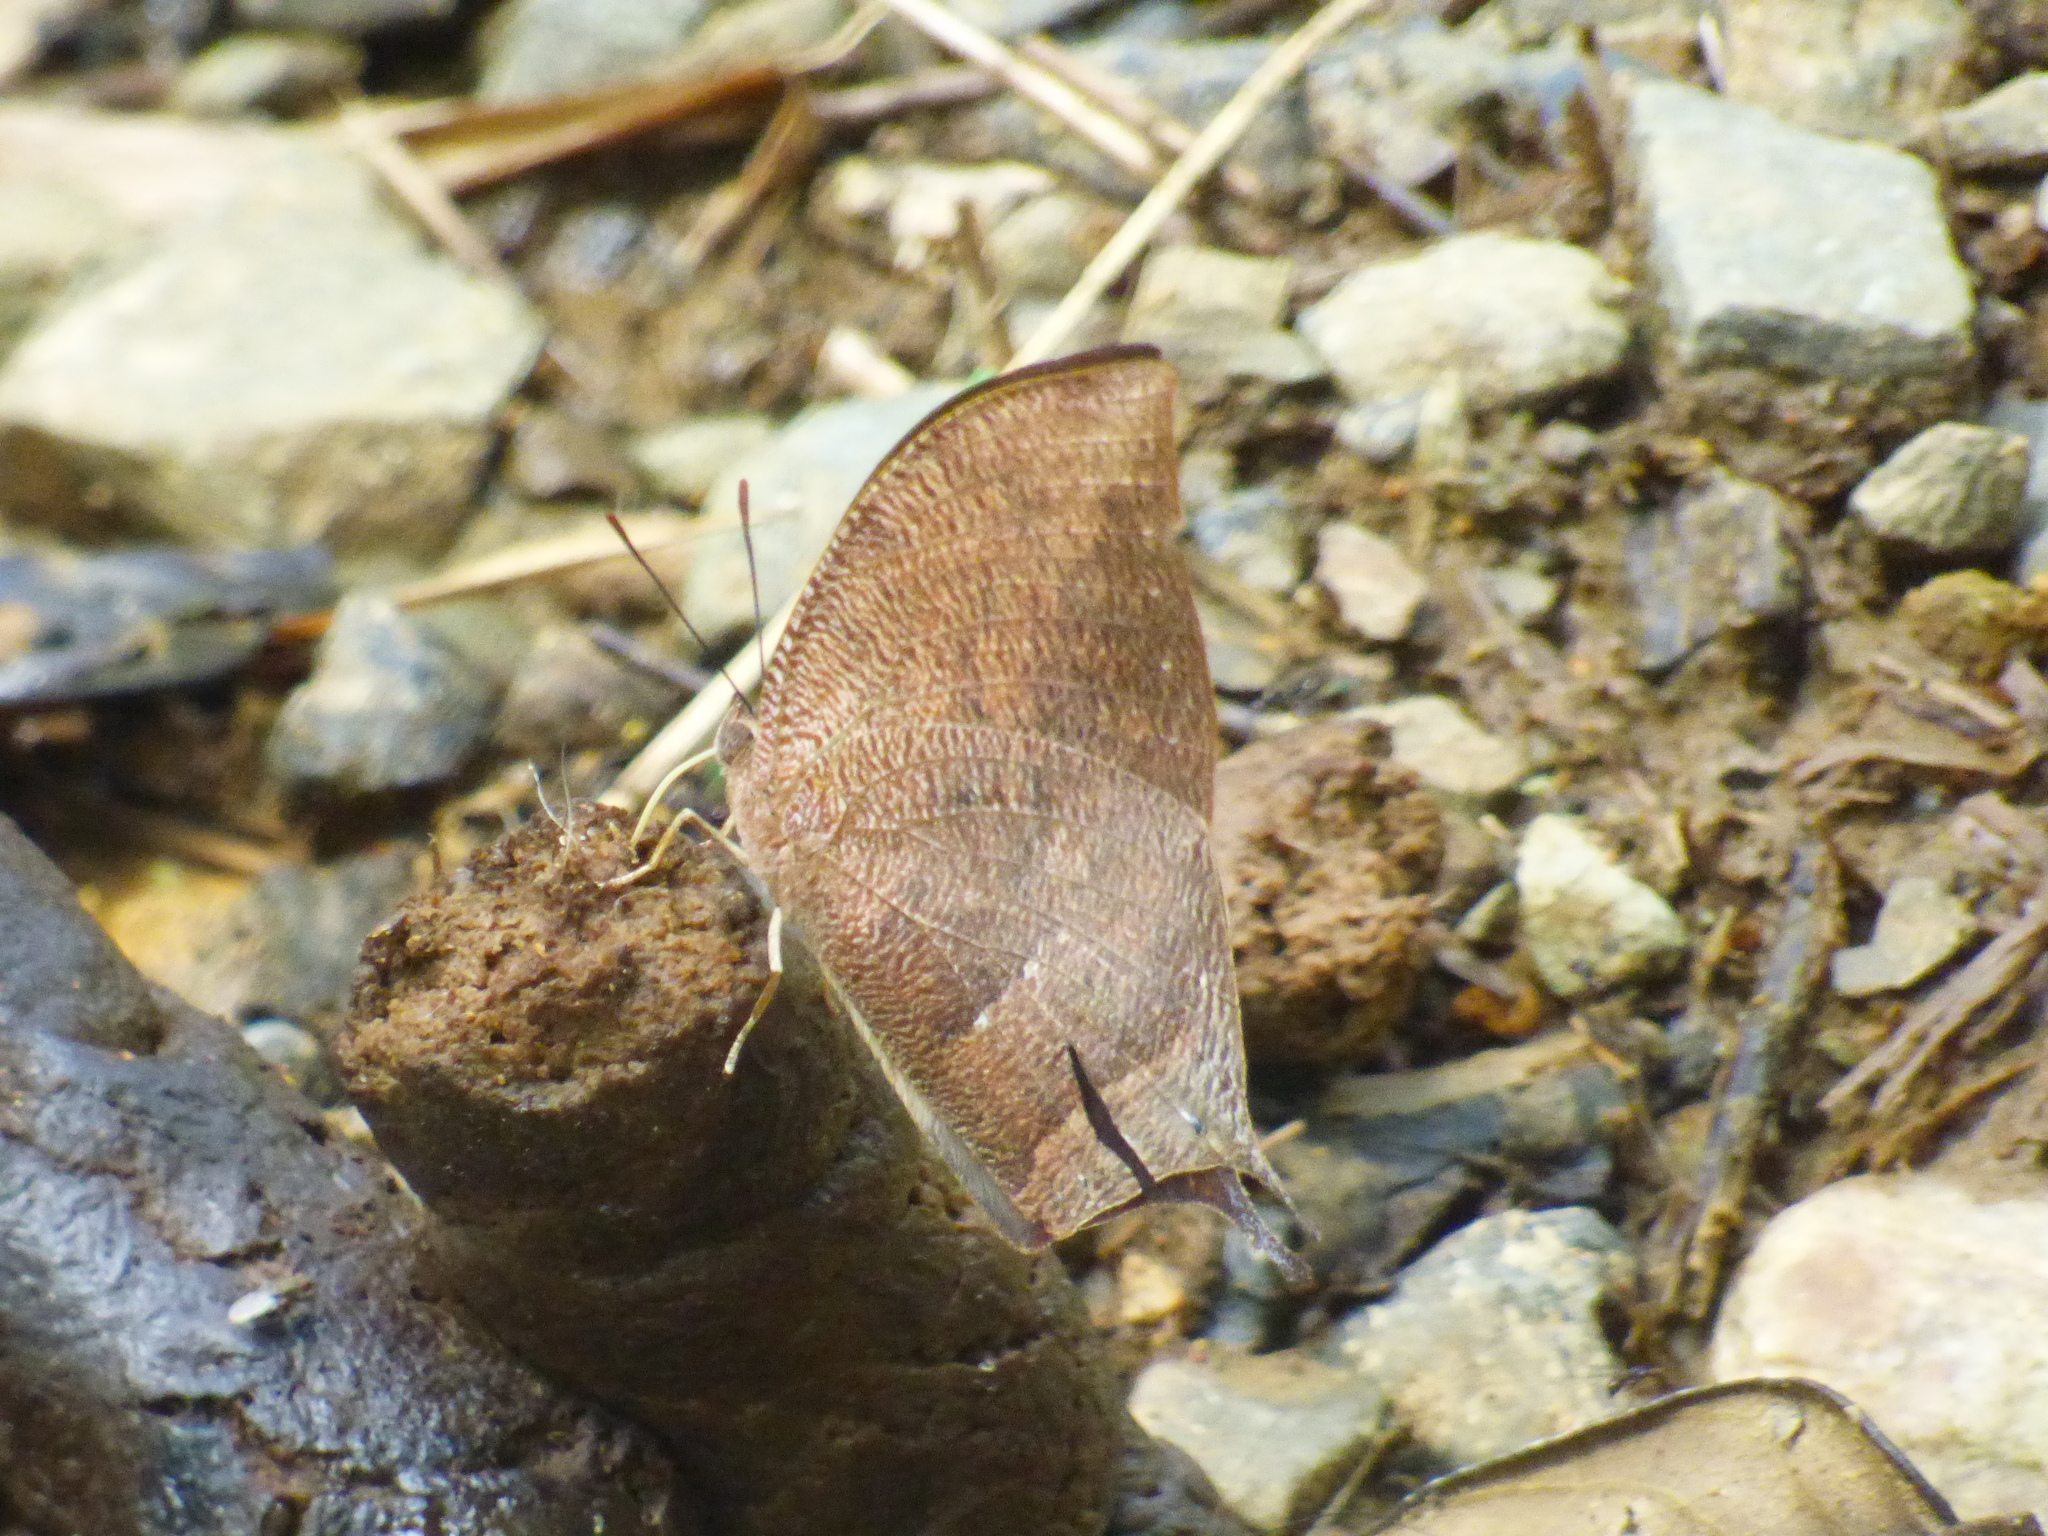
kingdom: Animalia
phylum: Arthropoda
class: Insecta
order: Lepidoptera
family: Nymphalidae
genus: Fountainea
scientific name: Fountainea
